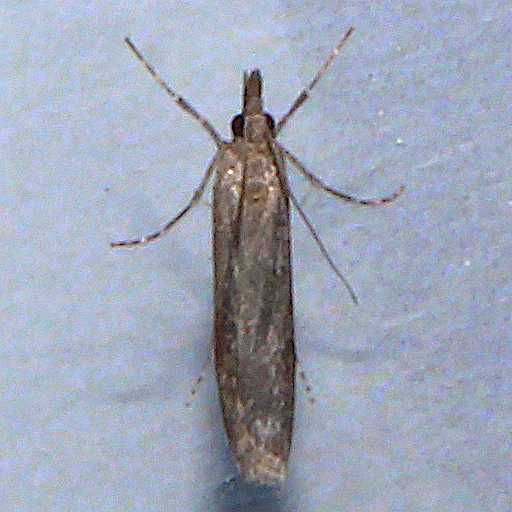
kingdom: Animalia
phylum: Arthropoda
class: Insecta
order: Lepidoptera
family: Crambidae
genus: Eudonia
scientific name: Eudonia leptalea
